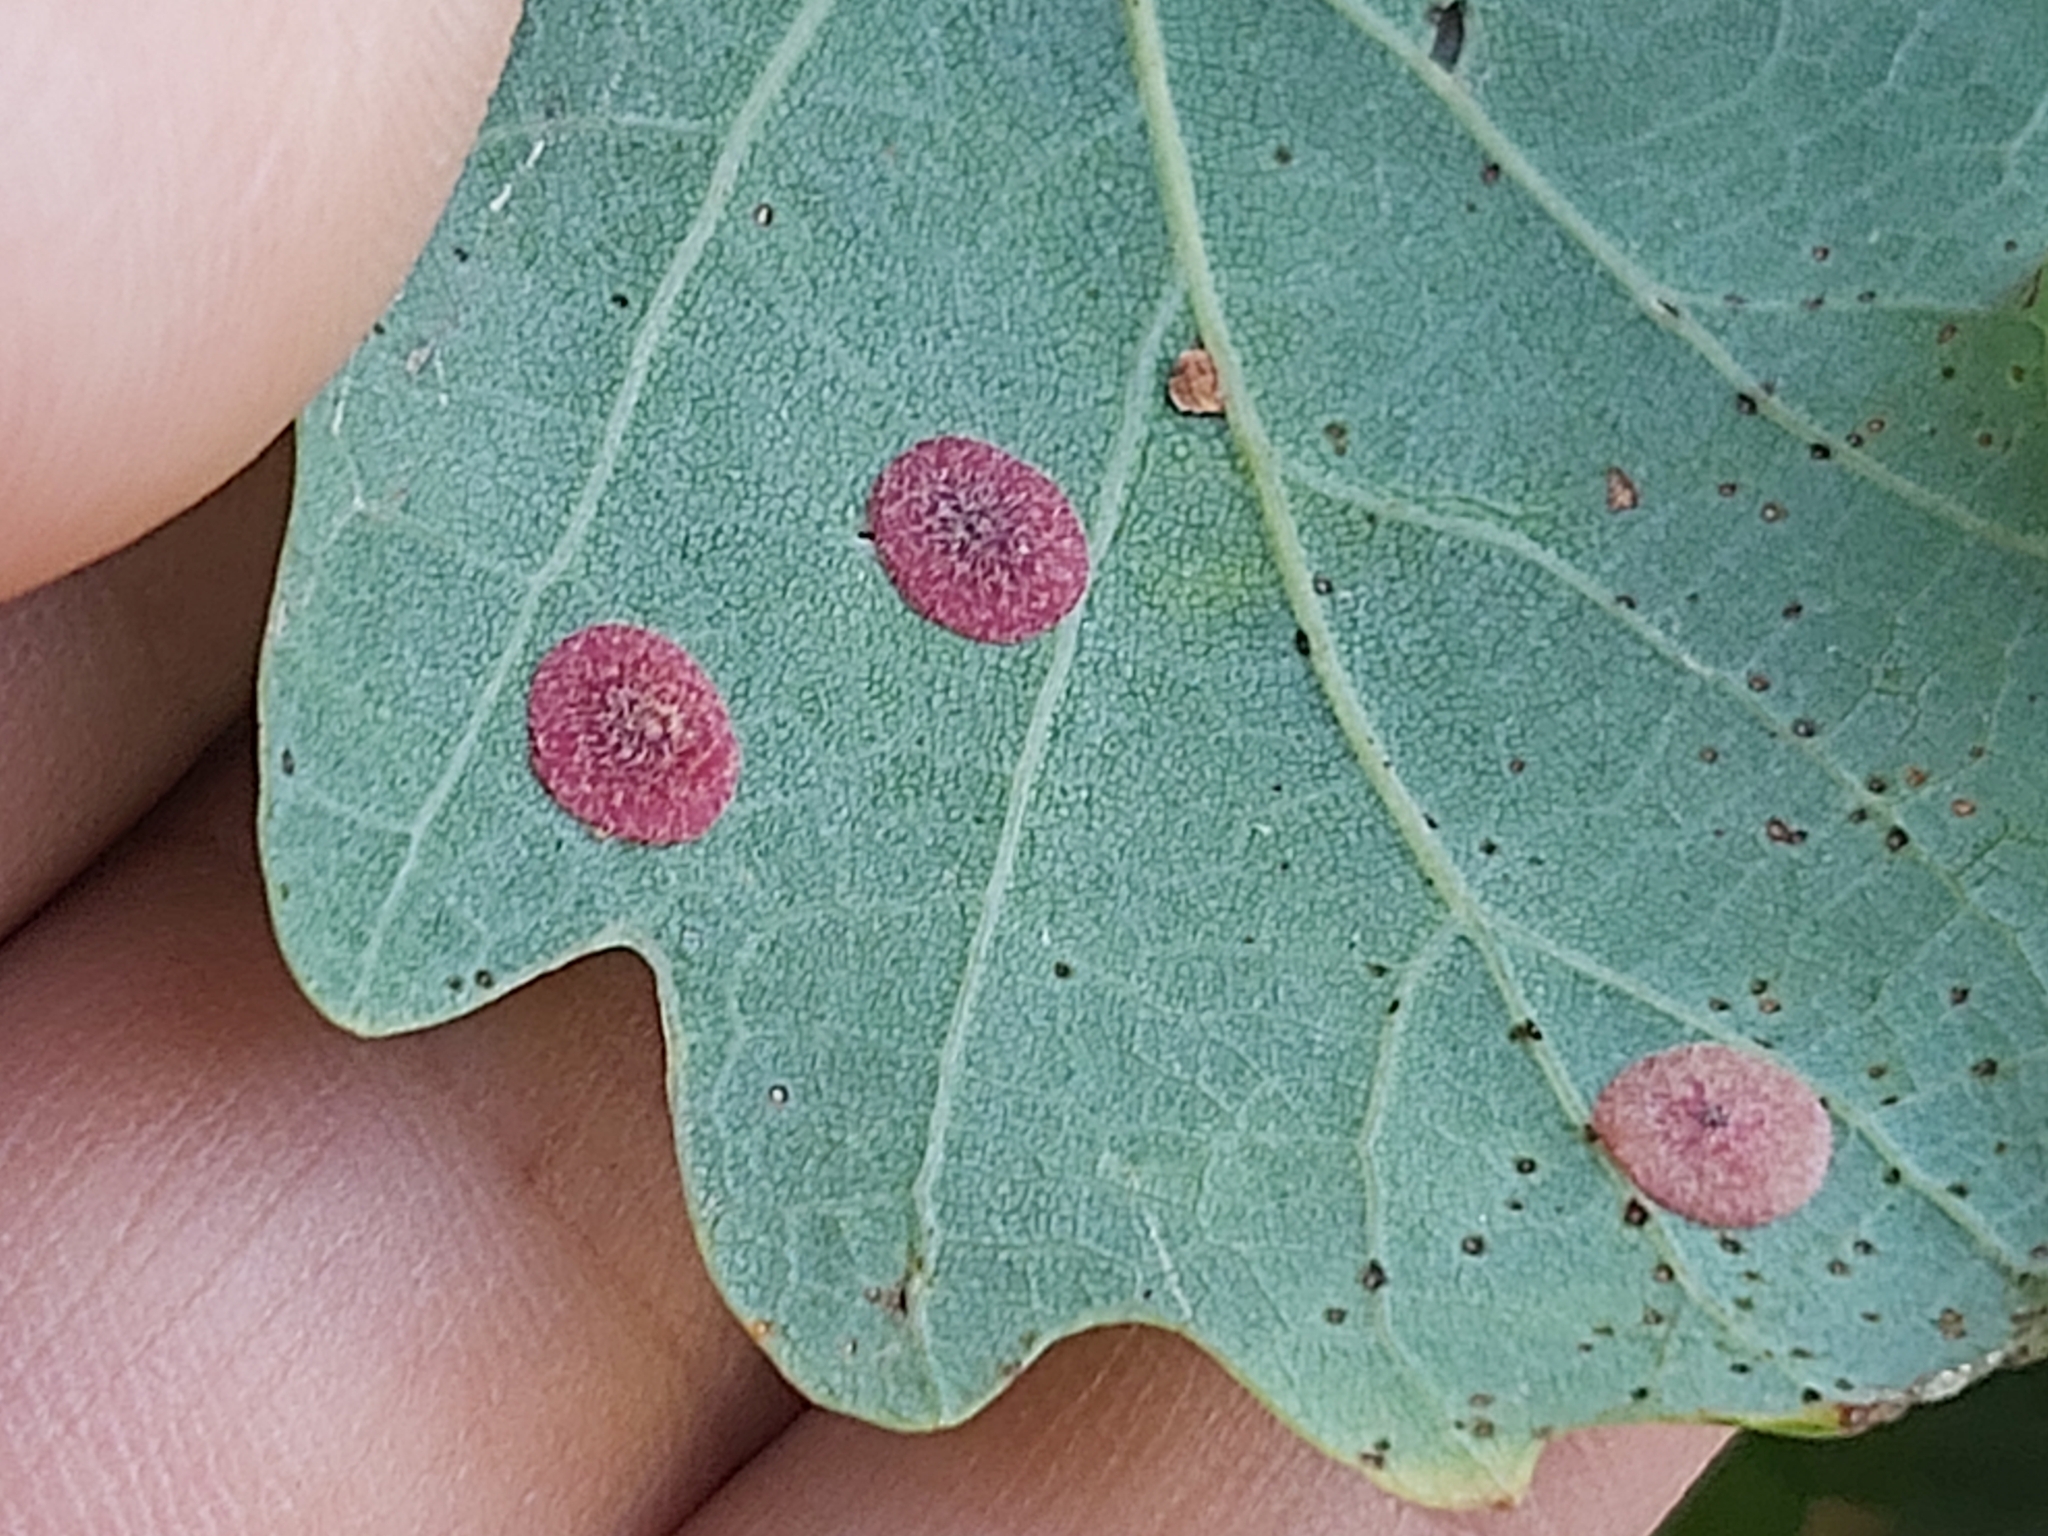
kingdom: Animalia
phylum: Arthropoda
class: Insecta
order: Hymenoptera
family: Cynipidae
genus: Neuroterus
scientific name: Neuroterus quercusbaccarum
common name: Common spangle gall
